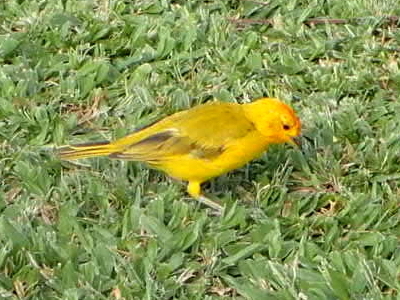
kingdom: Animalia
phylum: Chordata
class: Aves
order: Passeriformes
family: Thraupidae
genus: Sicalis
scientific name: Sicalis flaveola
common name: Saffron finch
